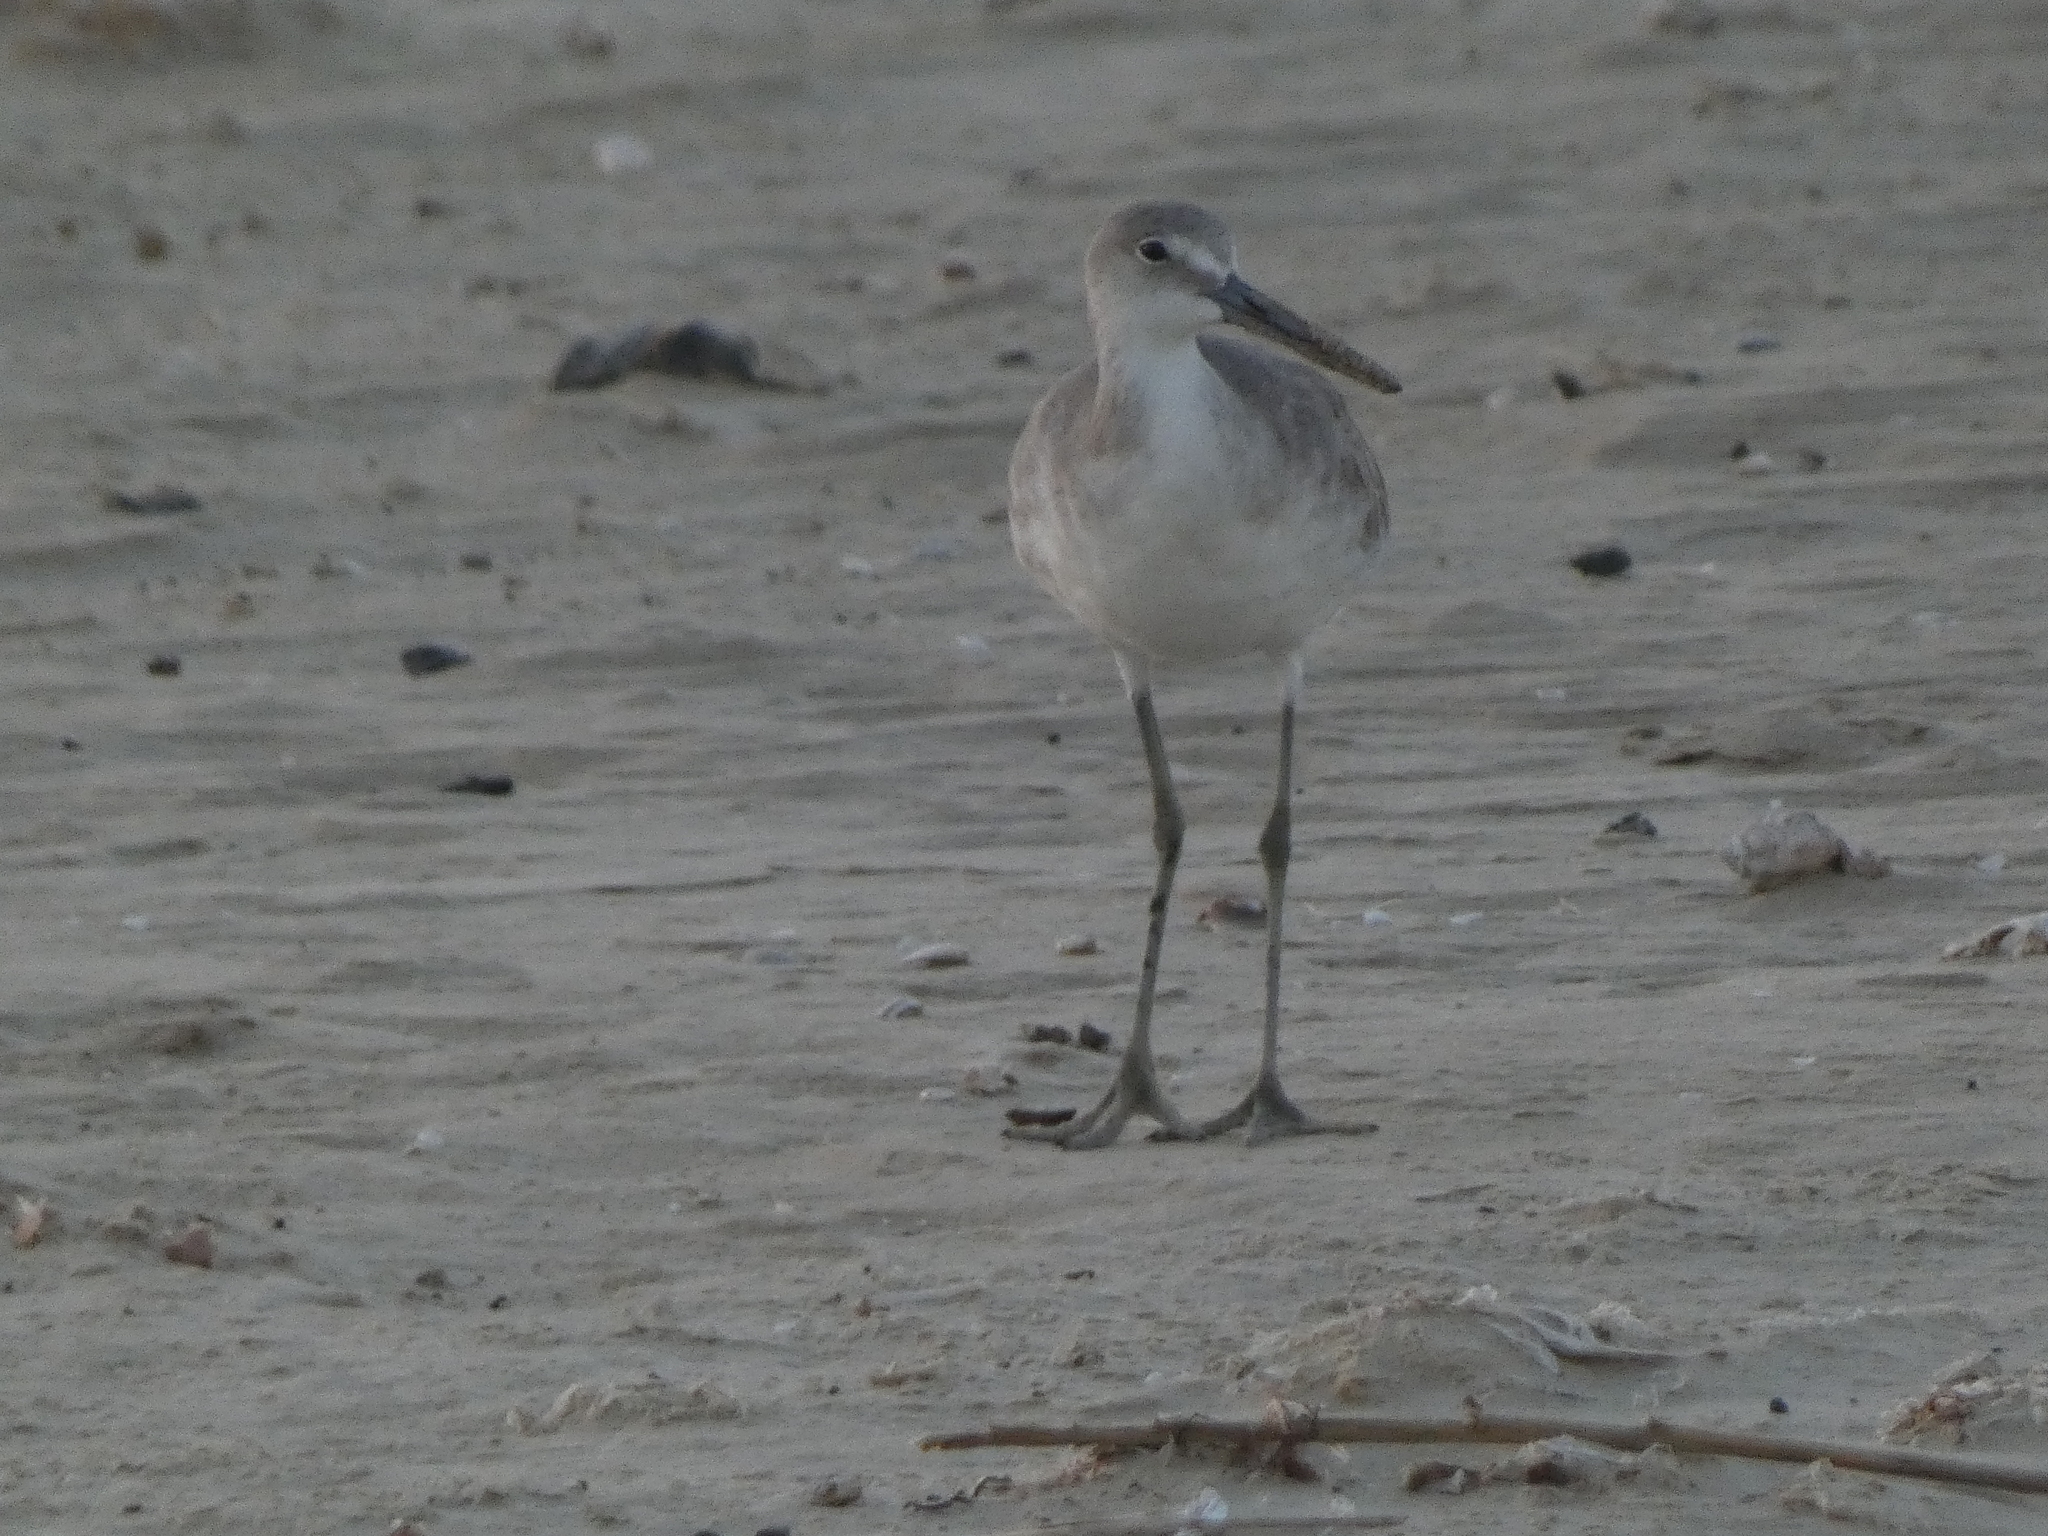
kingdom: Animalia
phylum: Chordata
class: Aves
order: Charadriiformes
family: Scolopacidae
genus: Tringa
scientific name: Tringa semipalmata
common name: Willet
